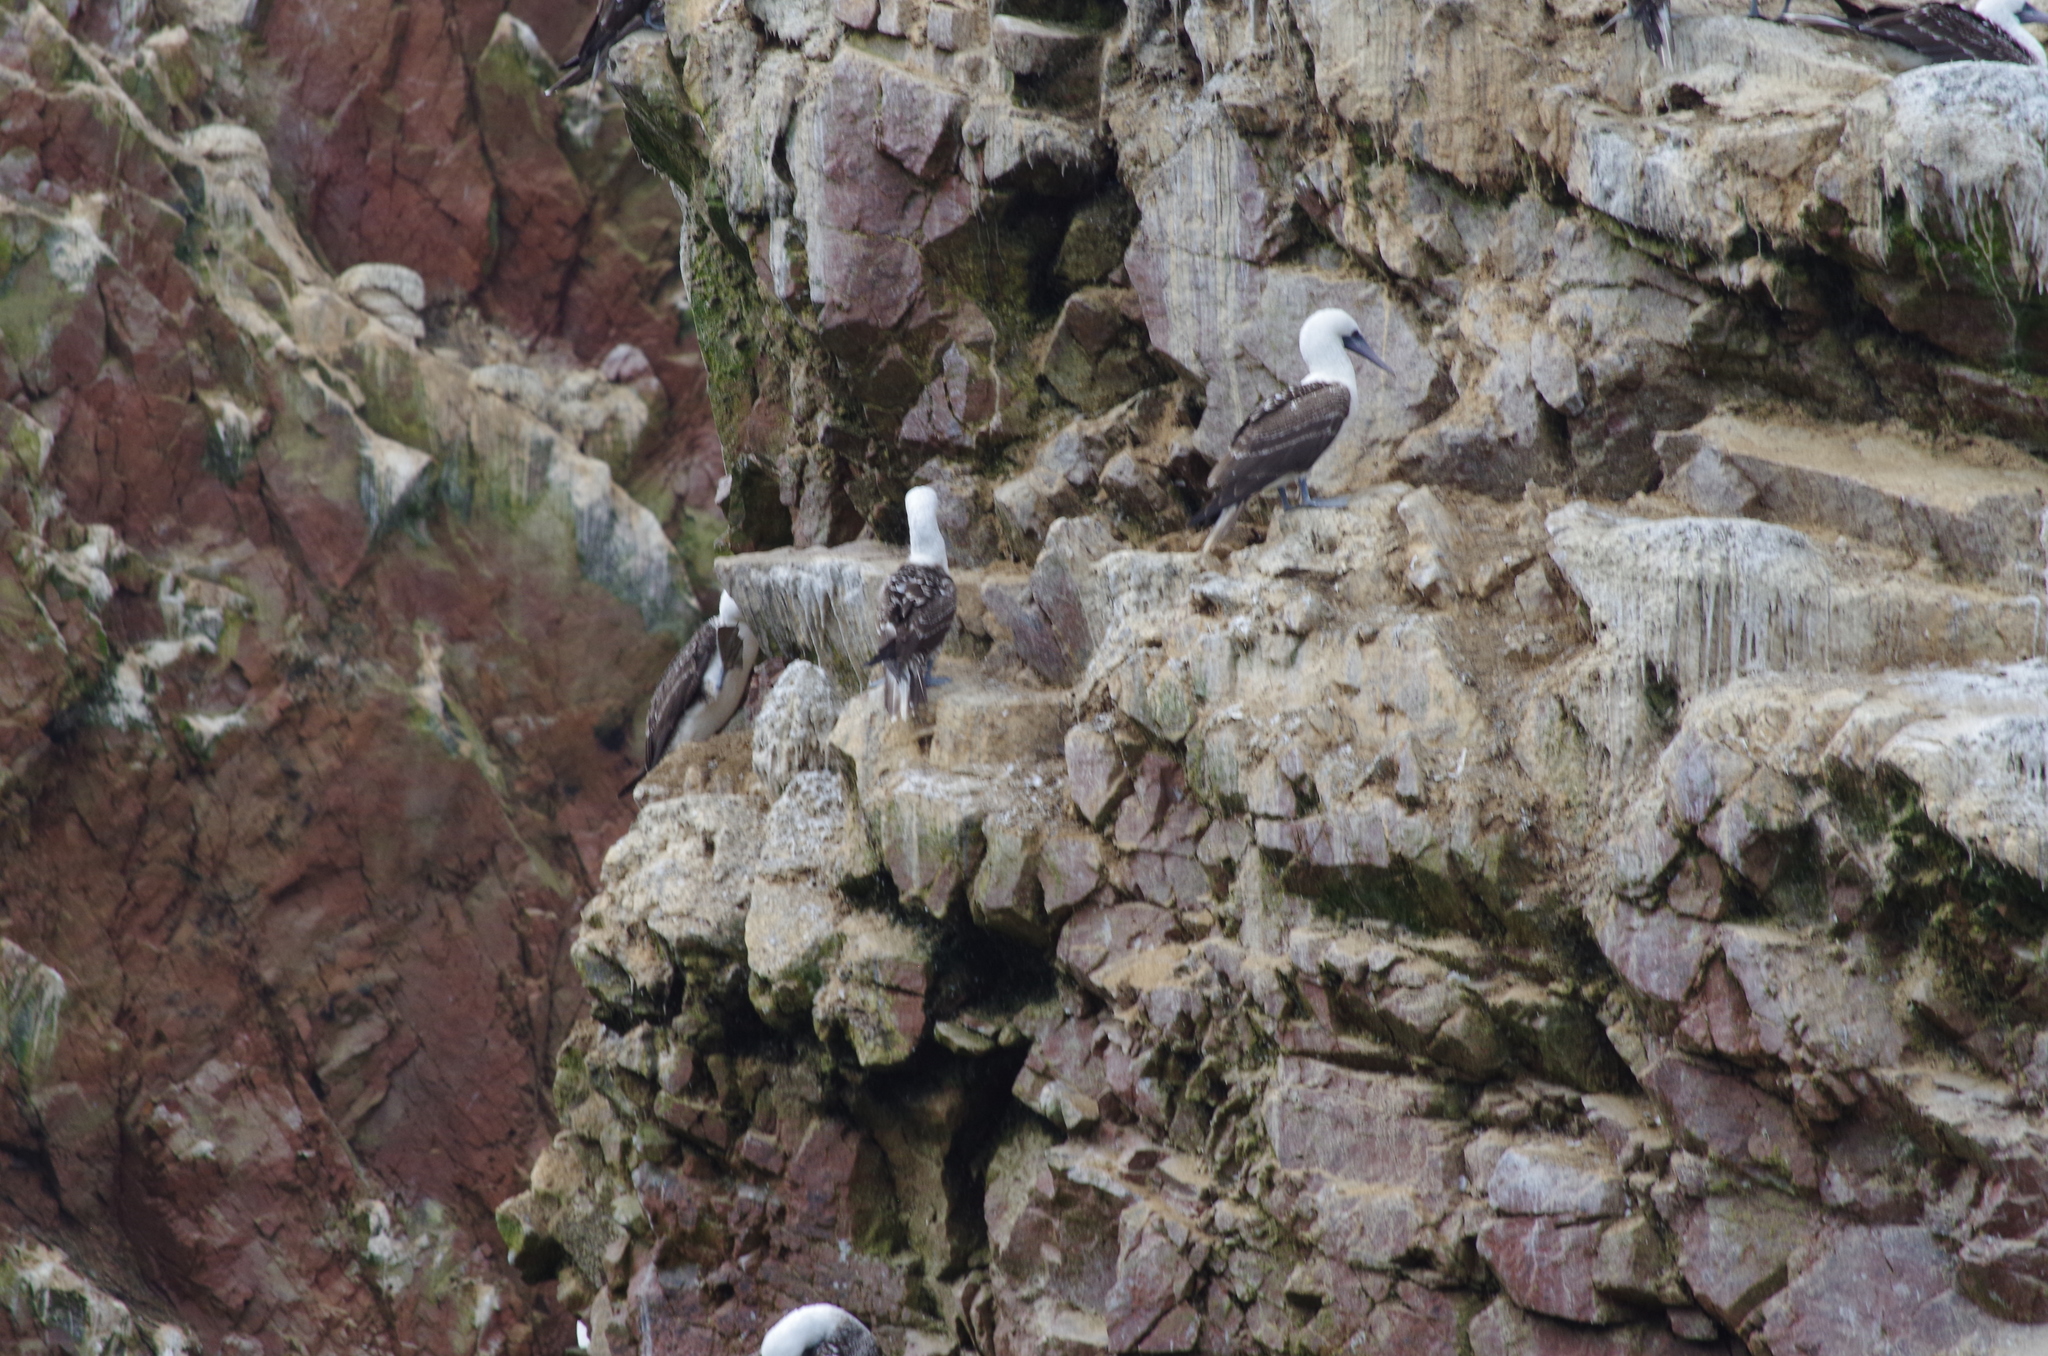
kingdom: Animalia
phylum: Chordata
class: Aves
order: Suliformes
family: Sulidae
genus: Sula
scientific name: Sula variegata
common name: Peruvian booby
